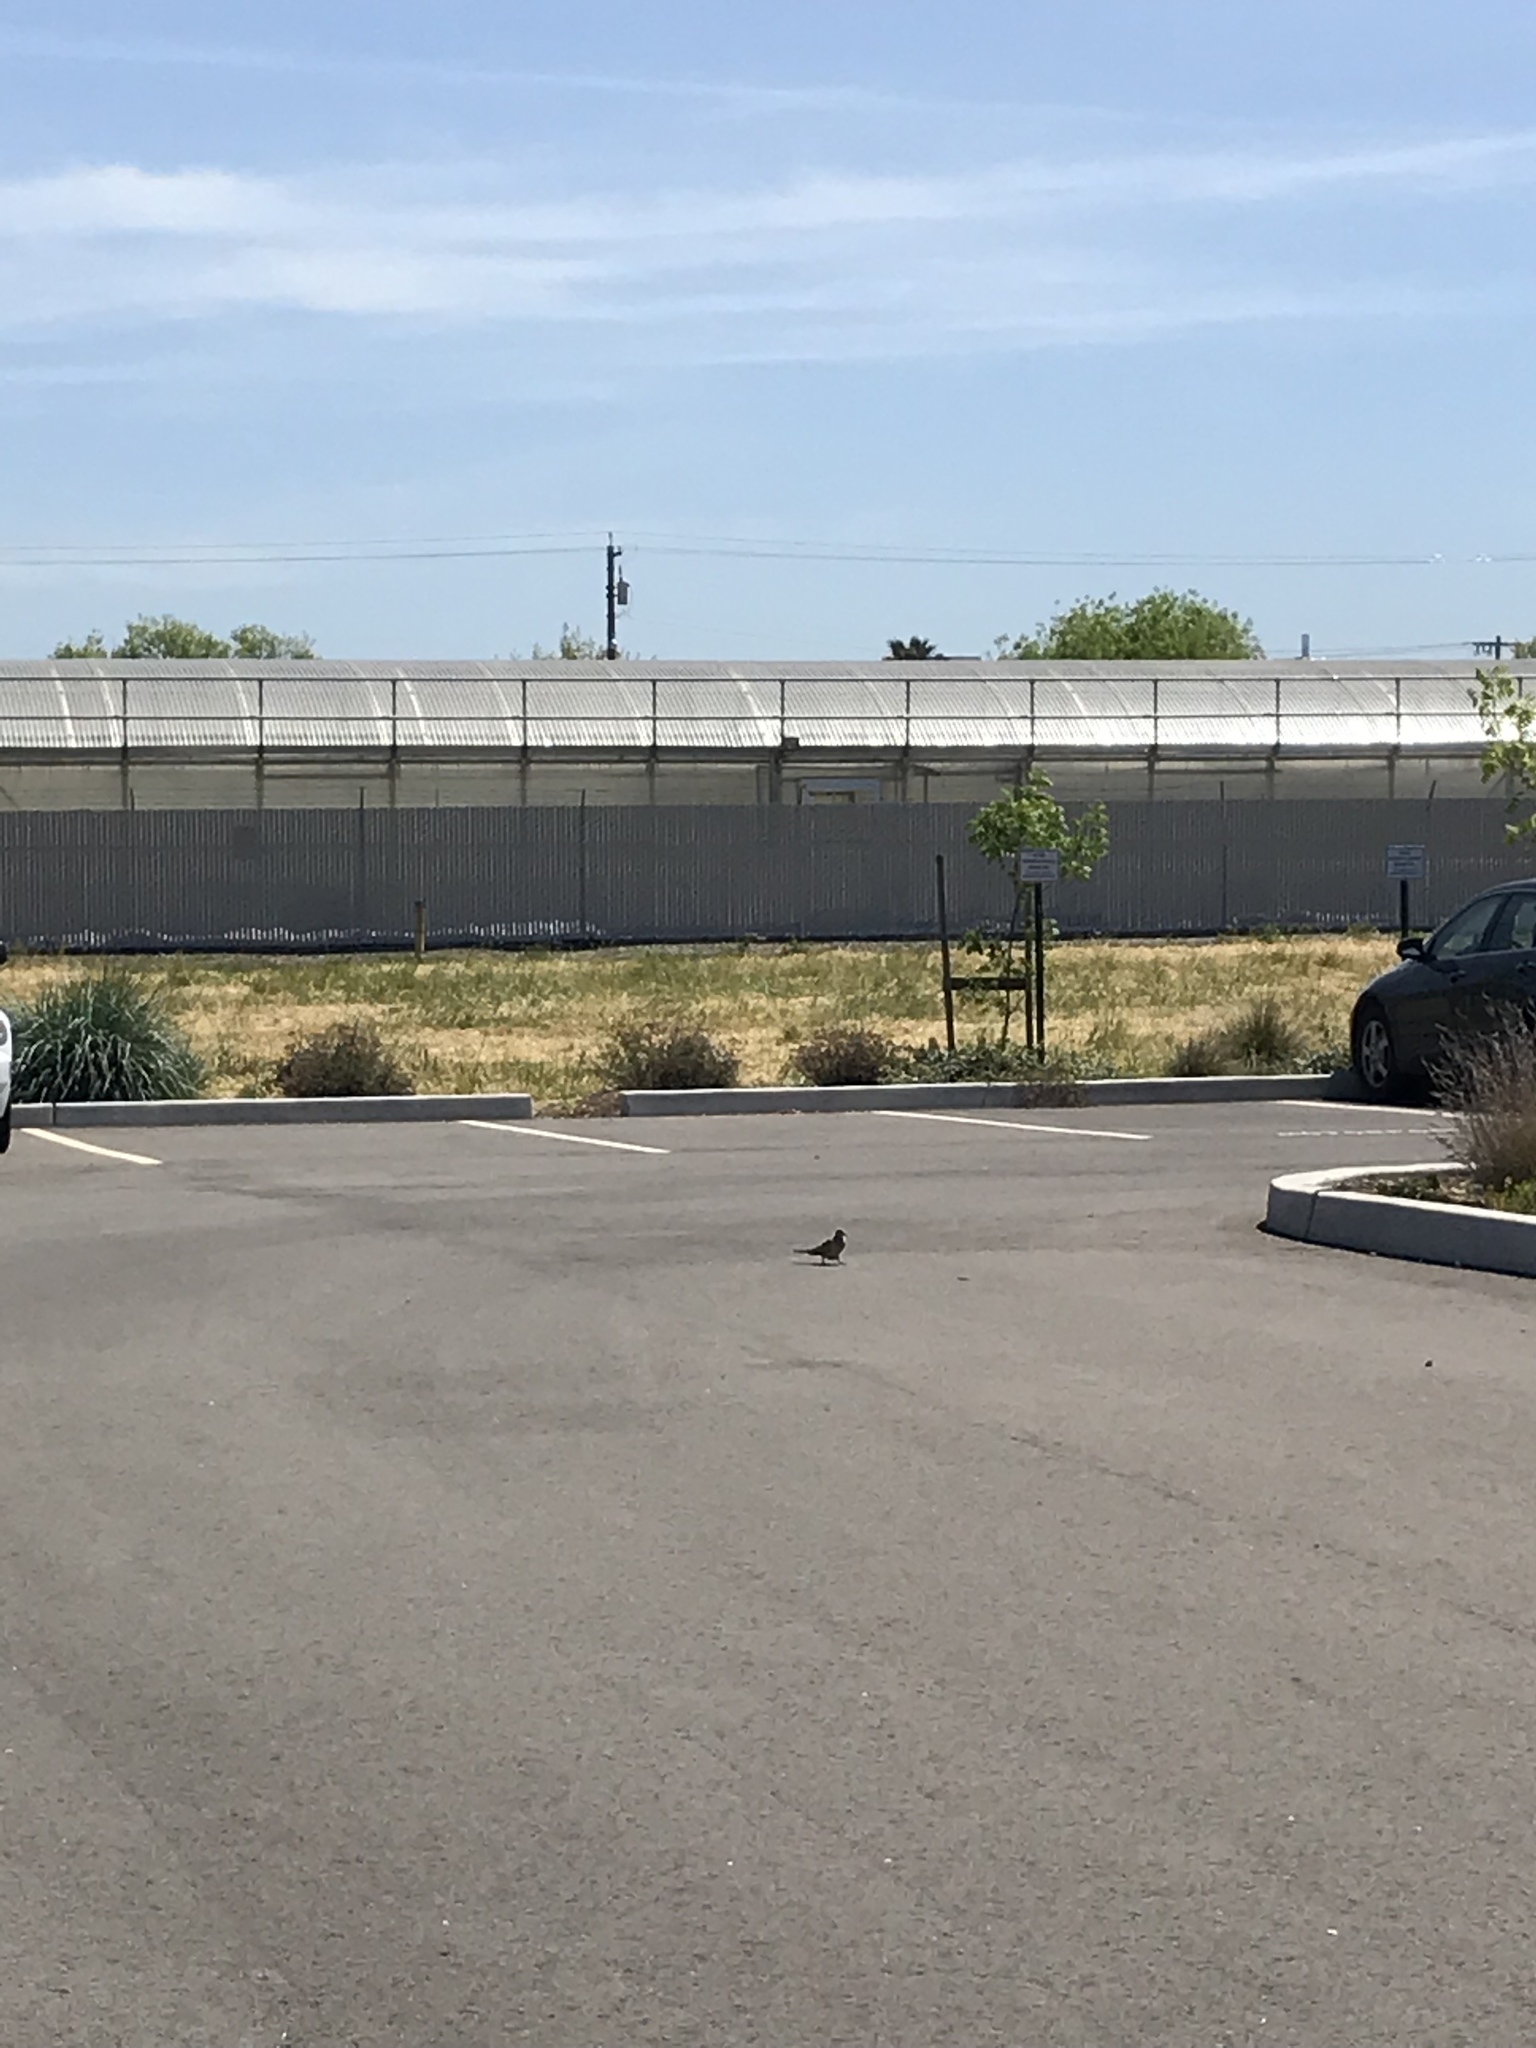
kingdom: Animalia
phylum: Chordata
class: Aves
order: Columbiformes
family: Columbidae
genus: Zenaida
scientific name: Zenaida macroura
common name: Mourning dove
